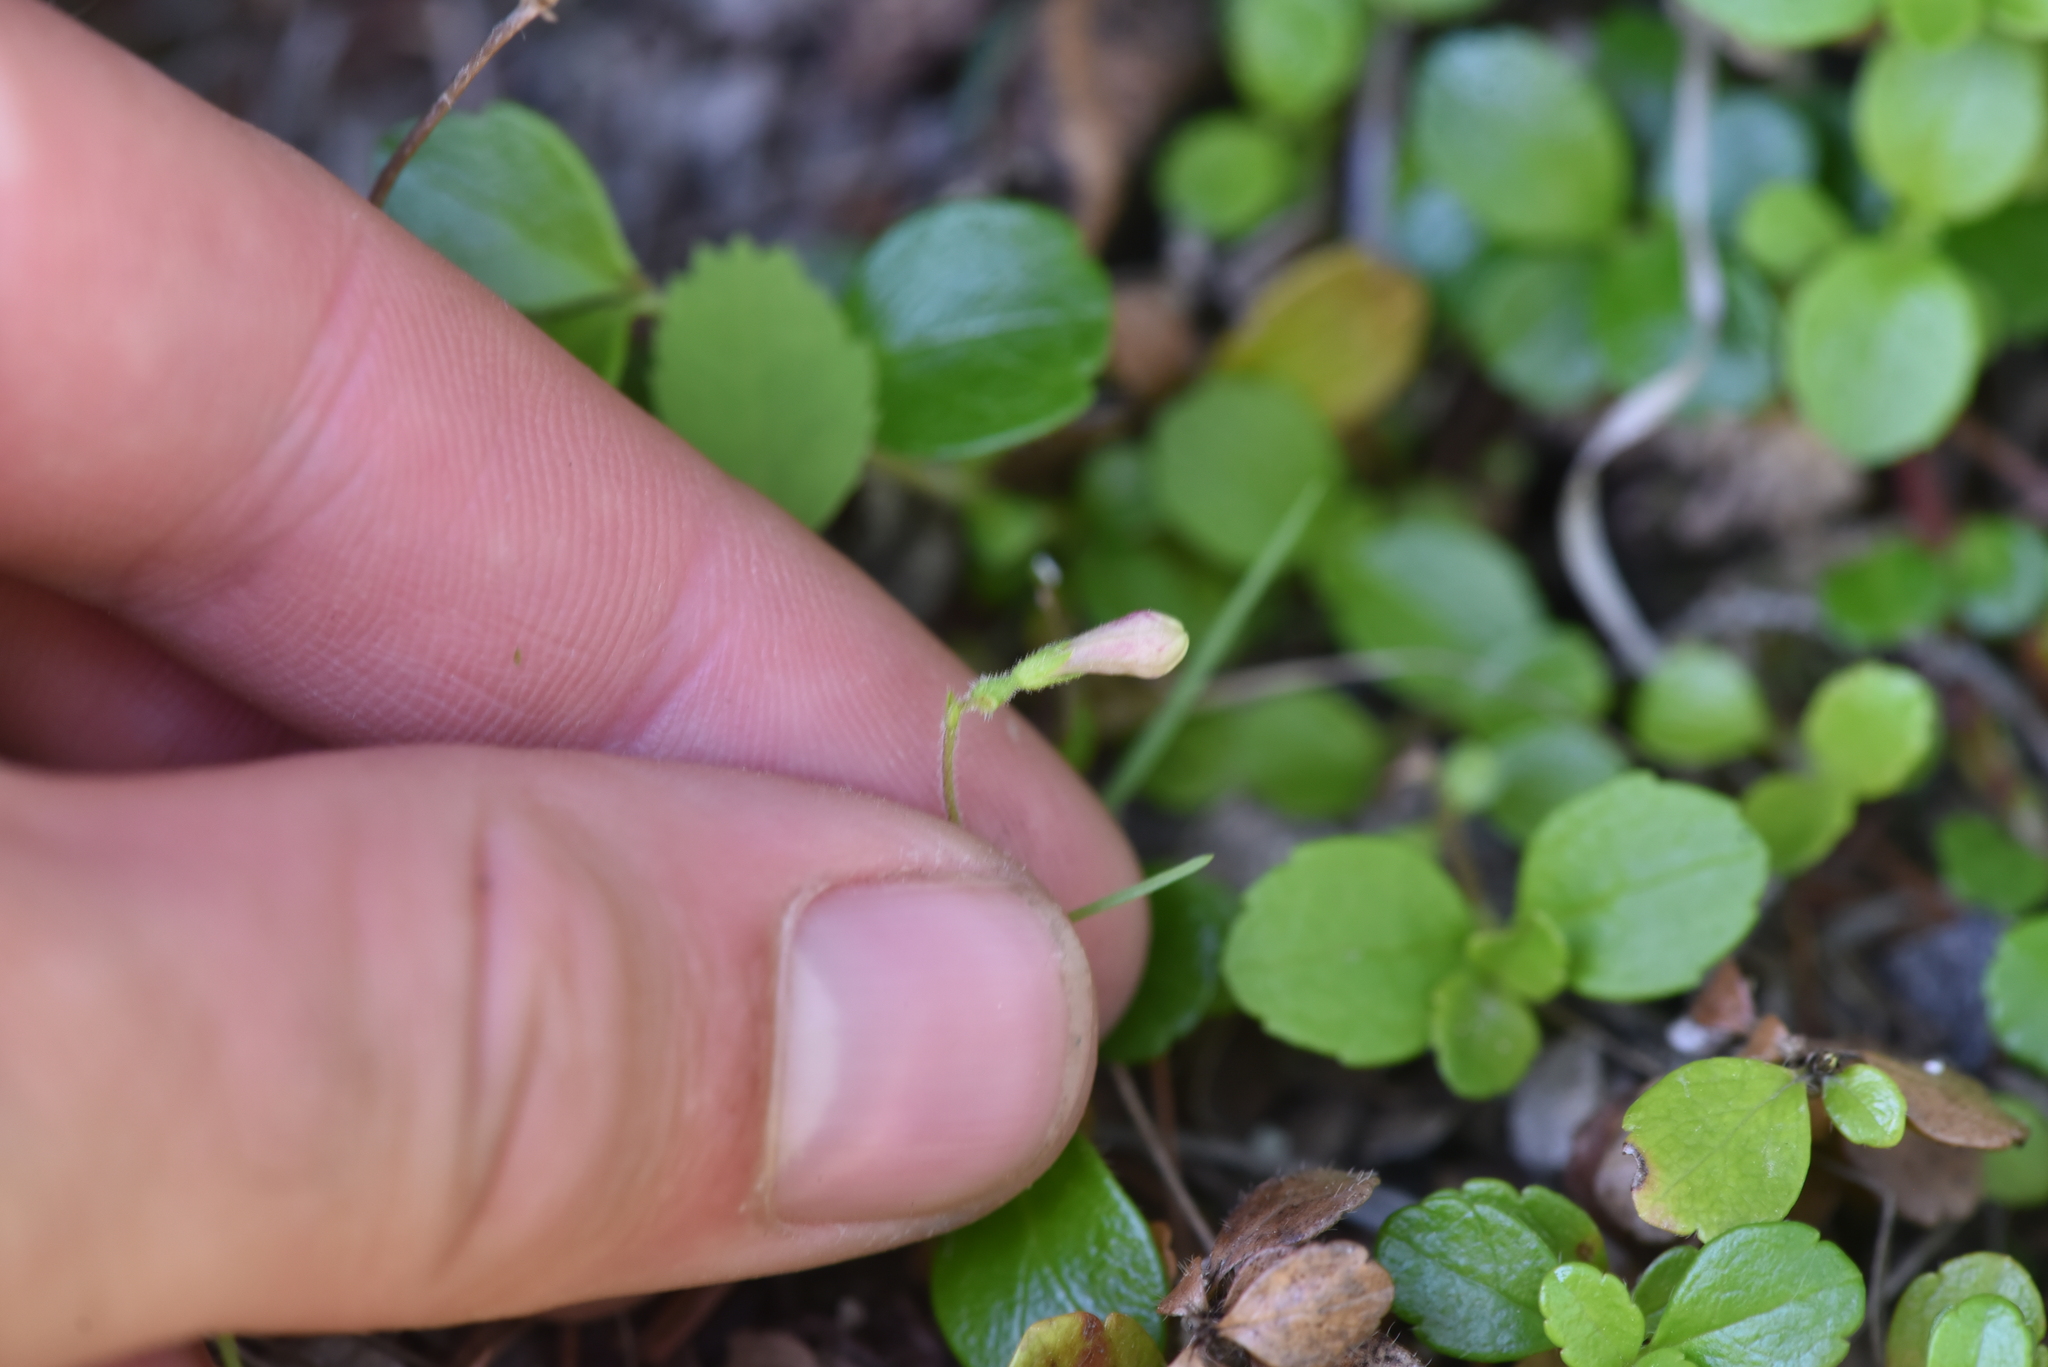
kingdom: Plantae
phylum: Tracheophyta
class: Magnoliopsida
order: Dipsacales
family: Caprifoliaceae
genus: Linnaea
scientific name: Linnaea borealis
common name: Twinflower
